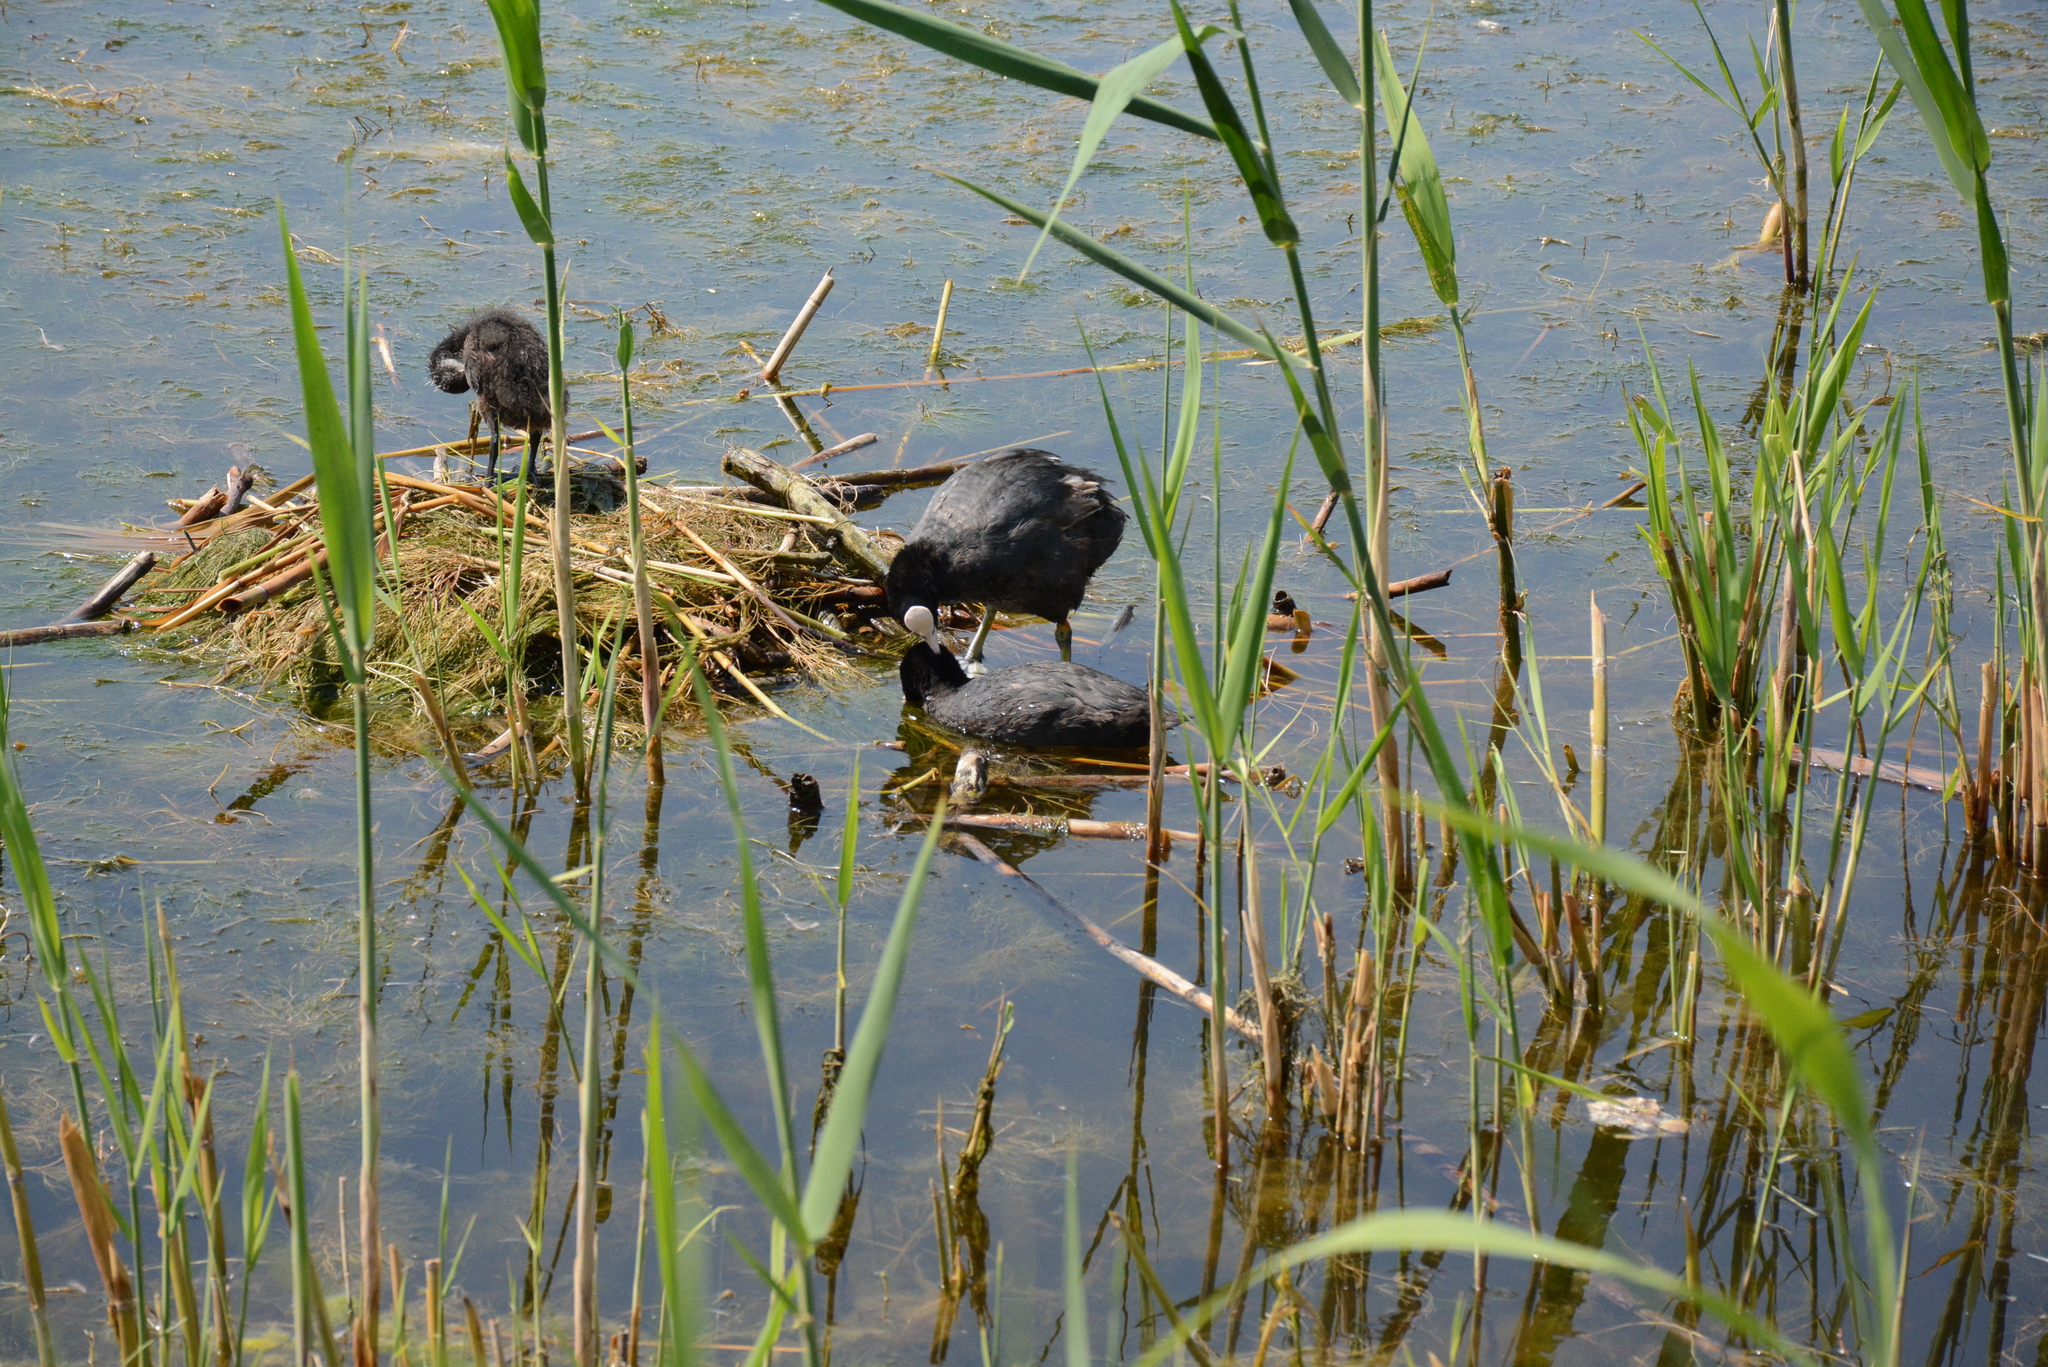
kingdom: Animalia
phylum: Chordata
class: Aves
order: Gruiformes
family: Rallidae
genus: Fulica
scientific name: Fulica atra
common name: Eurasian coot
